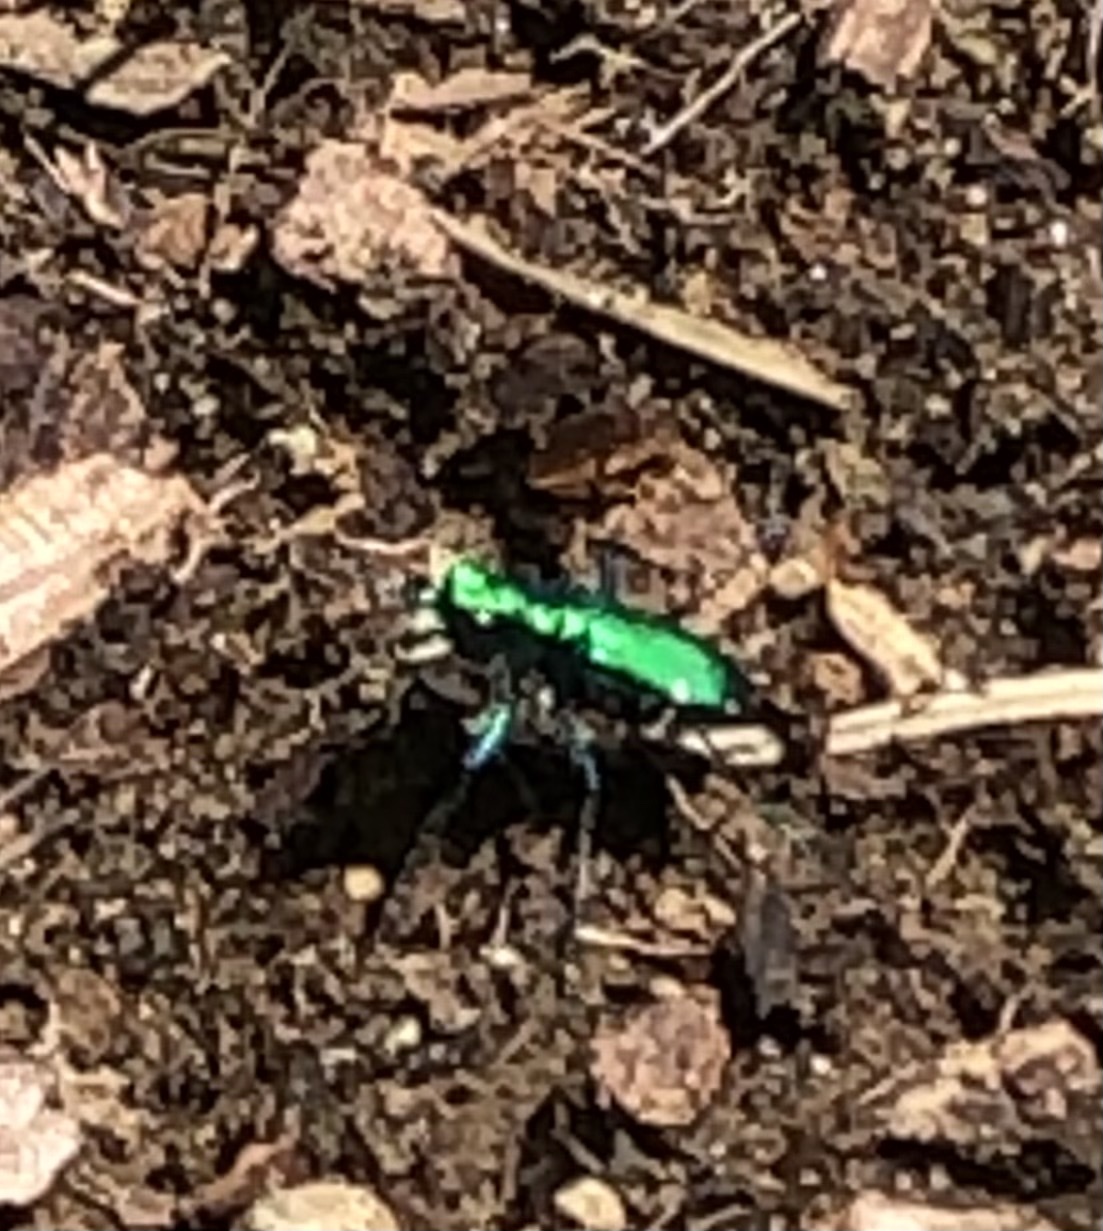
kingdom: Animalia
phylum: Arthropoda
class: Insecta
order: Coleoptera
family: Carabidae
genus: Cicindela
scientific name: Cicindela sexguttata
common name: Six-spotted tiger beetle
